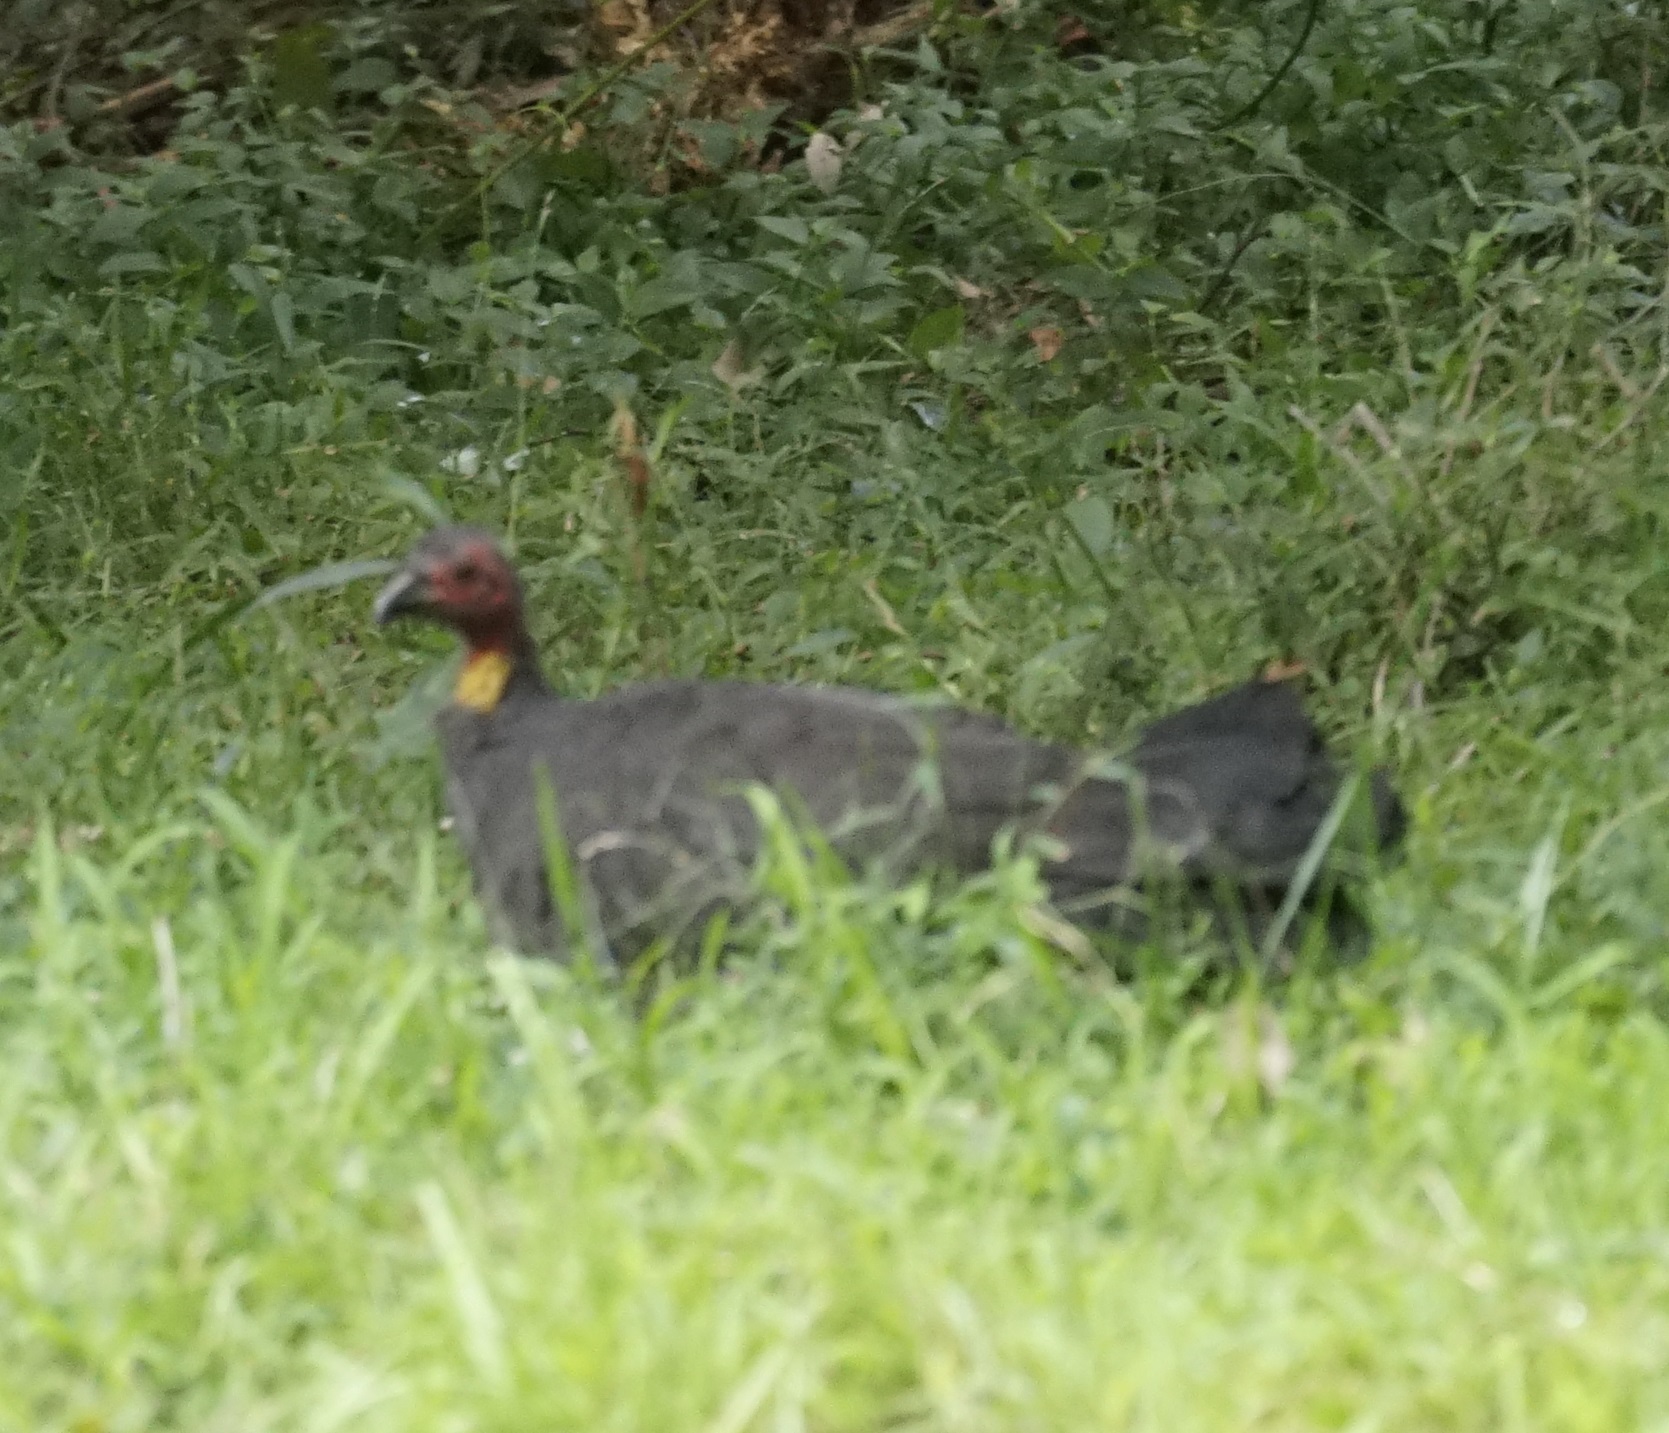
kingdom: Animalia
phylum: Chordata
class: Aves
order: Galliformes
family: Megapodiidae
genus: Alectura
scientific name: Alectura lathami
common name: Australian brushturkey
